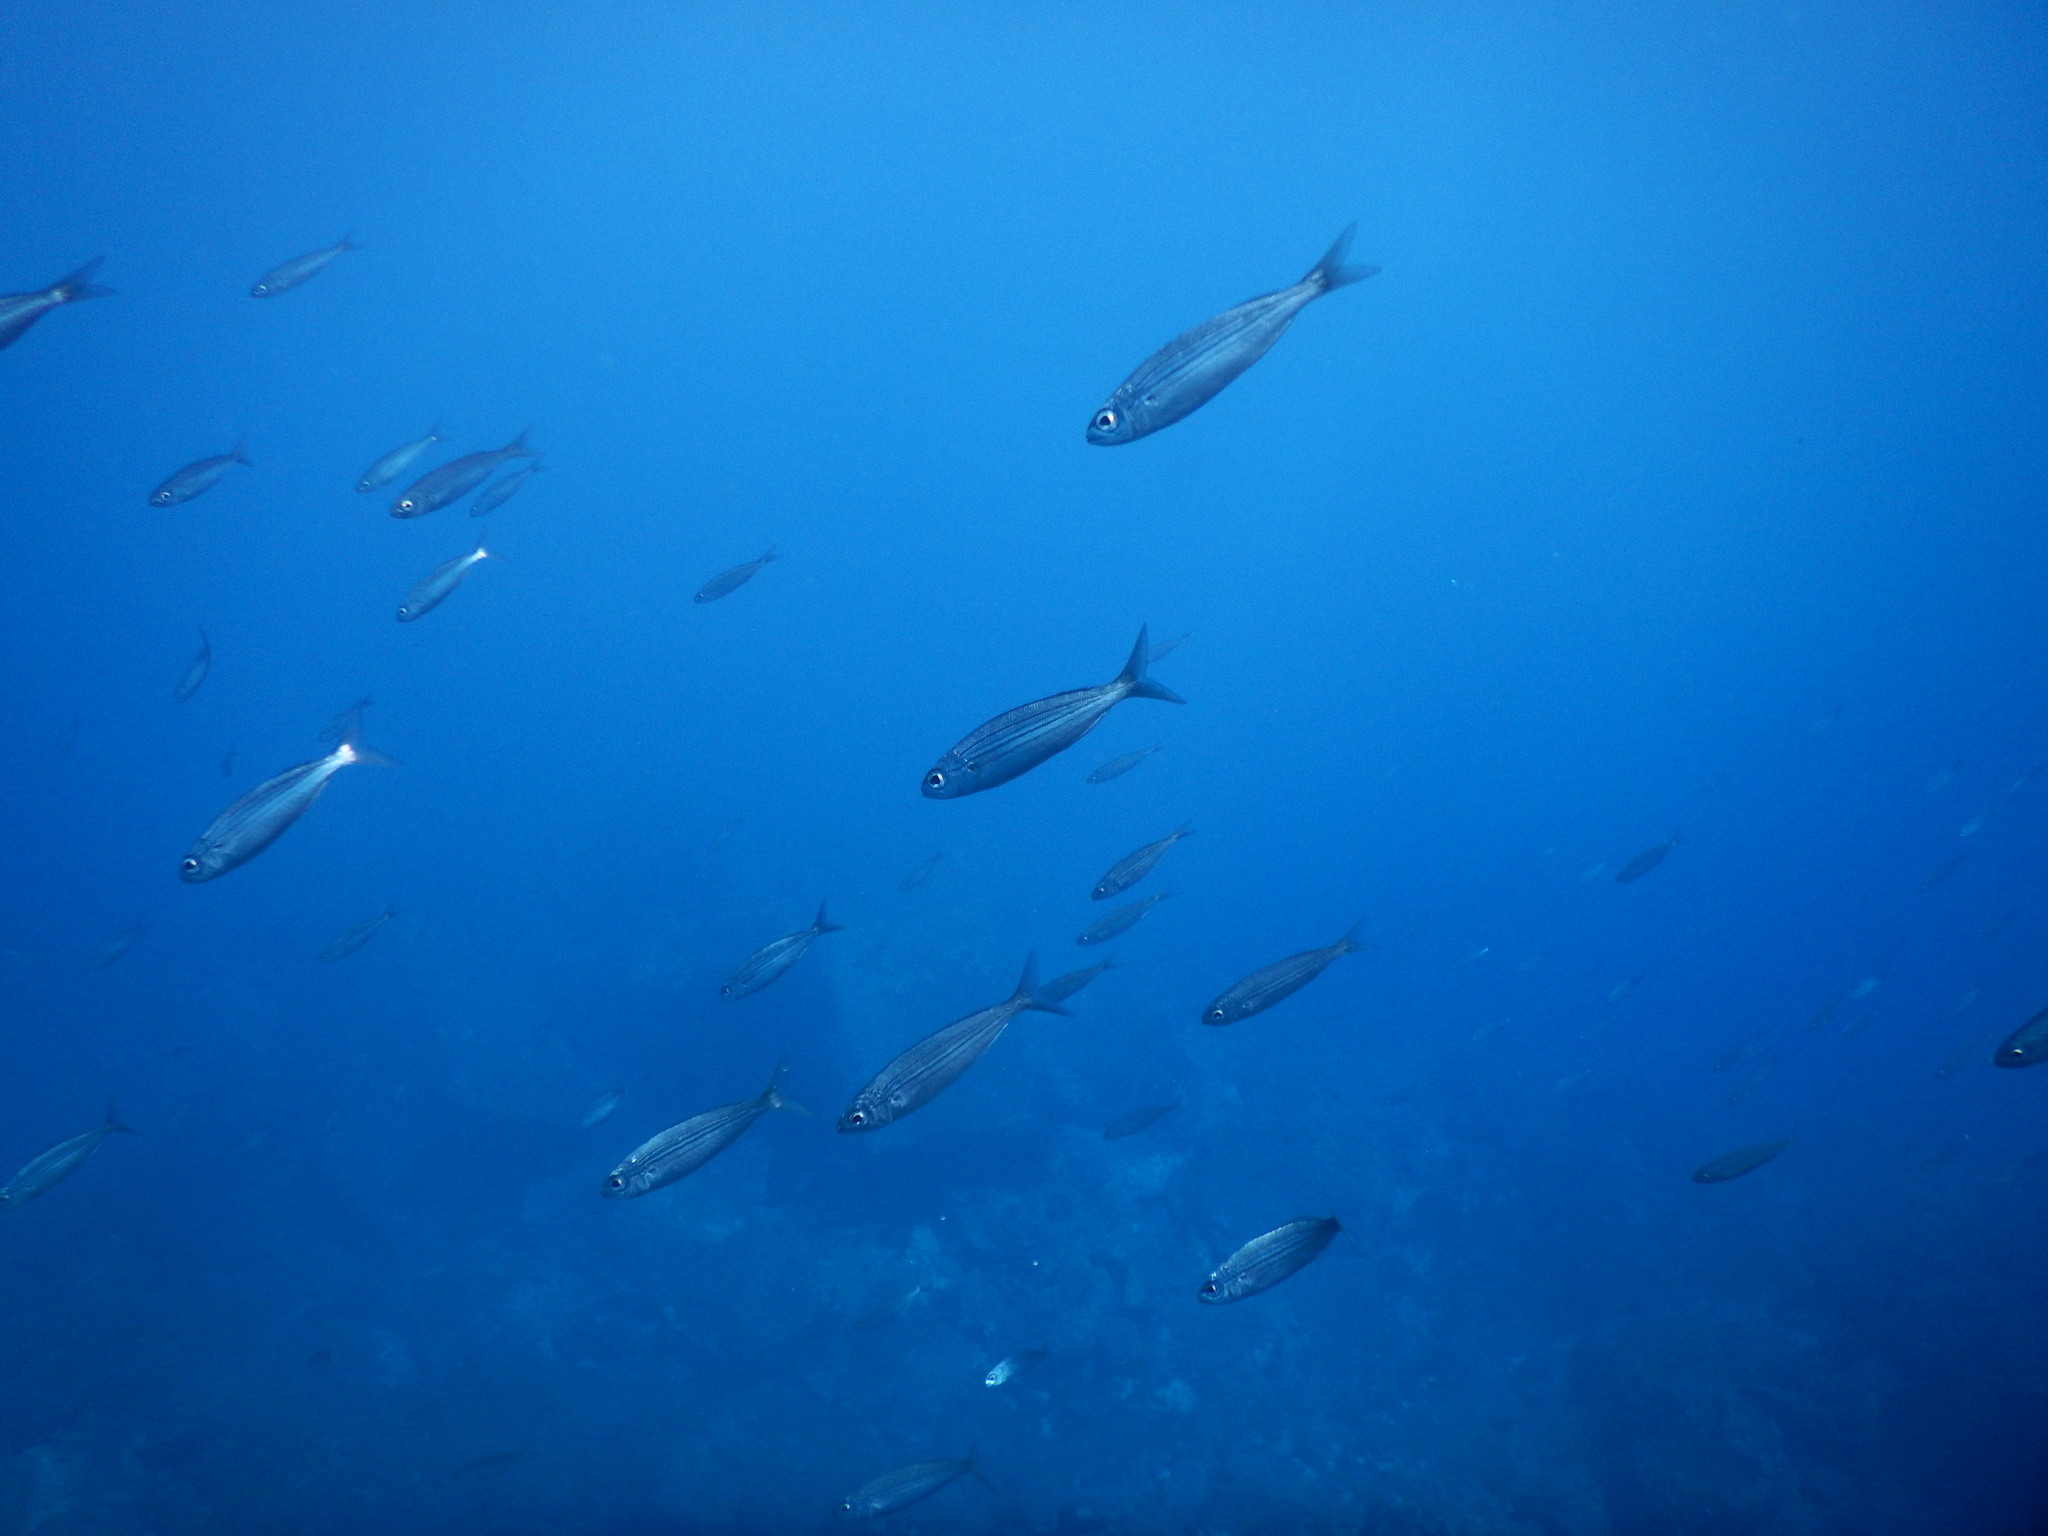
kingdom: Animalia
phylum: Chordata
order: Perciformes
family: Sparidae
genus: Boops
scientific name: Boops boops
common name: Bogue
